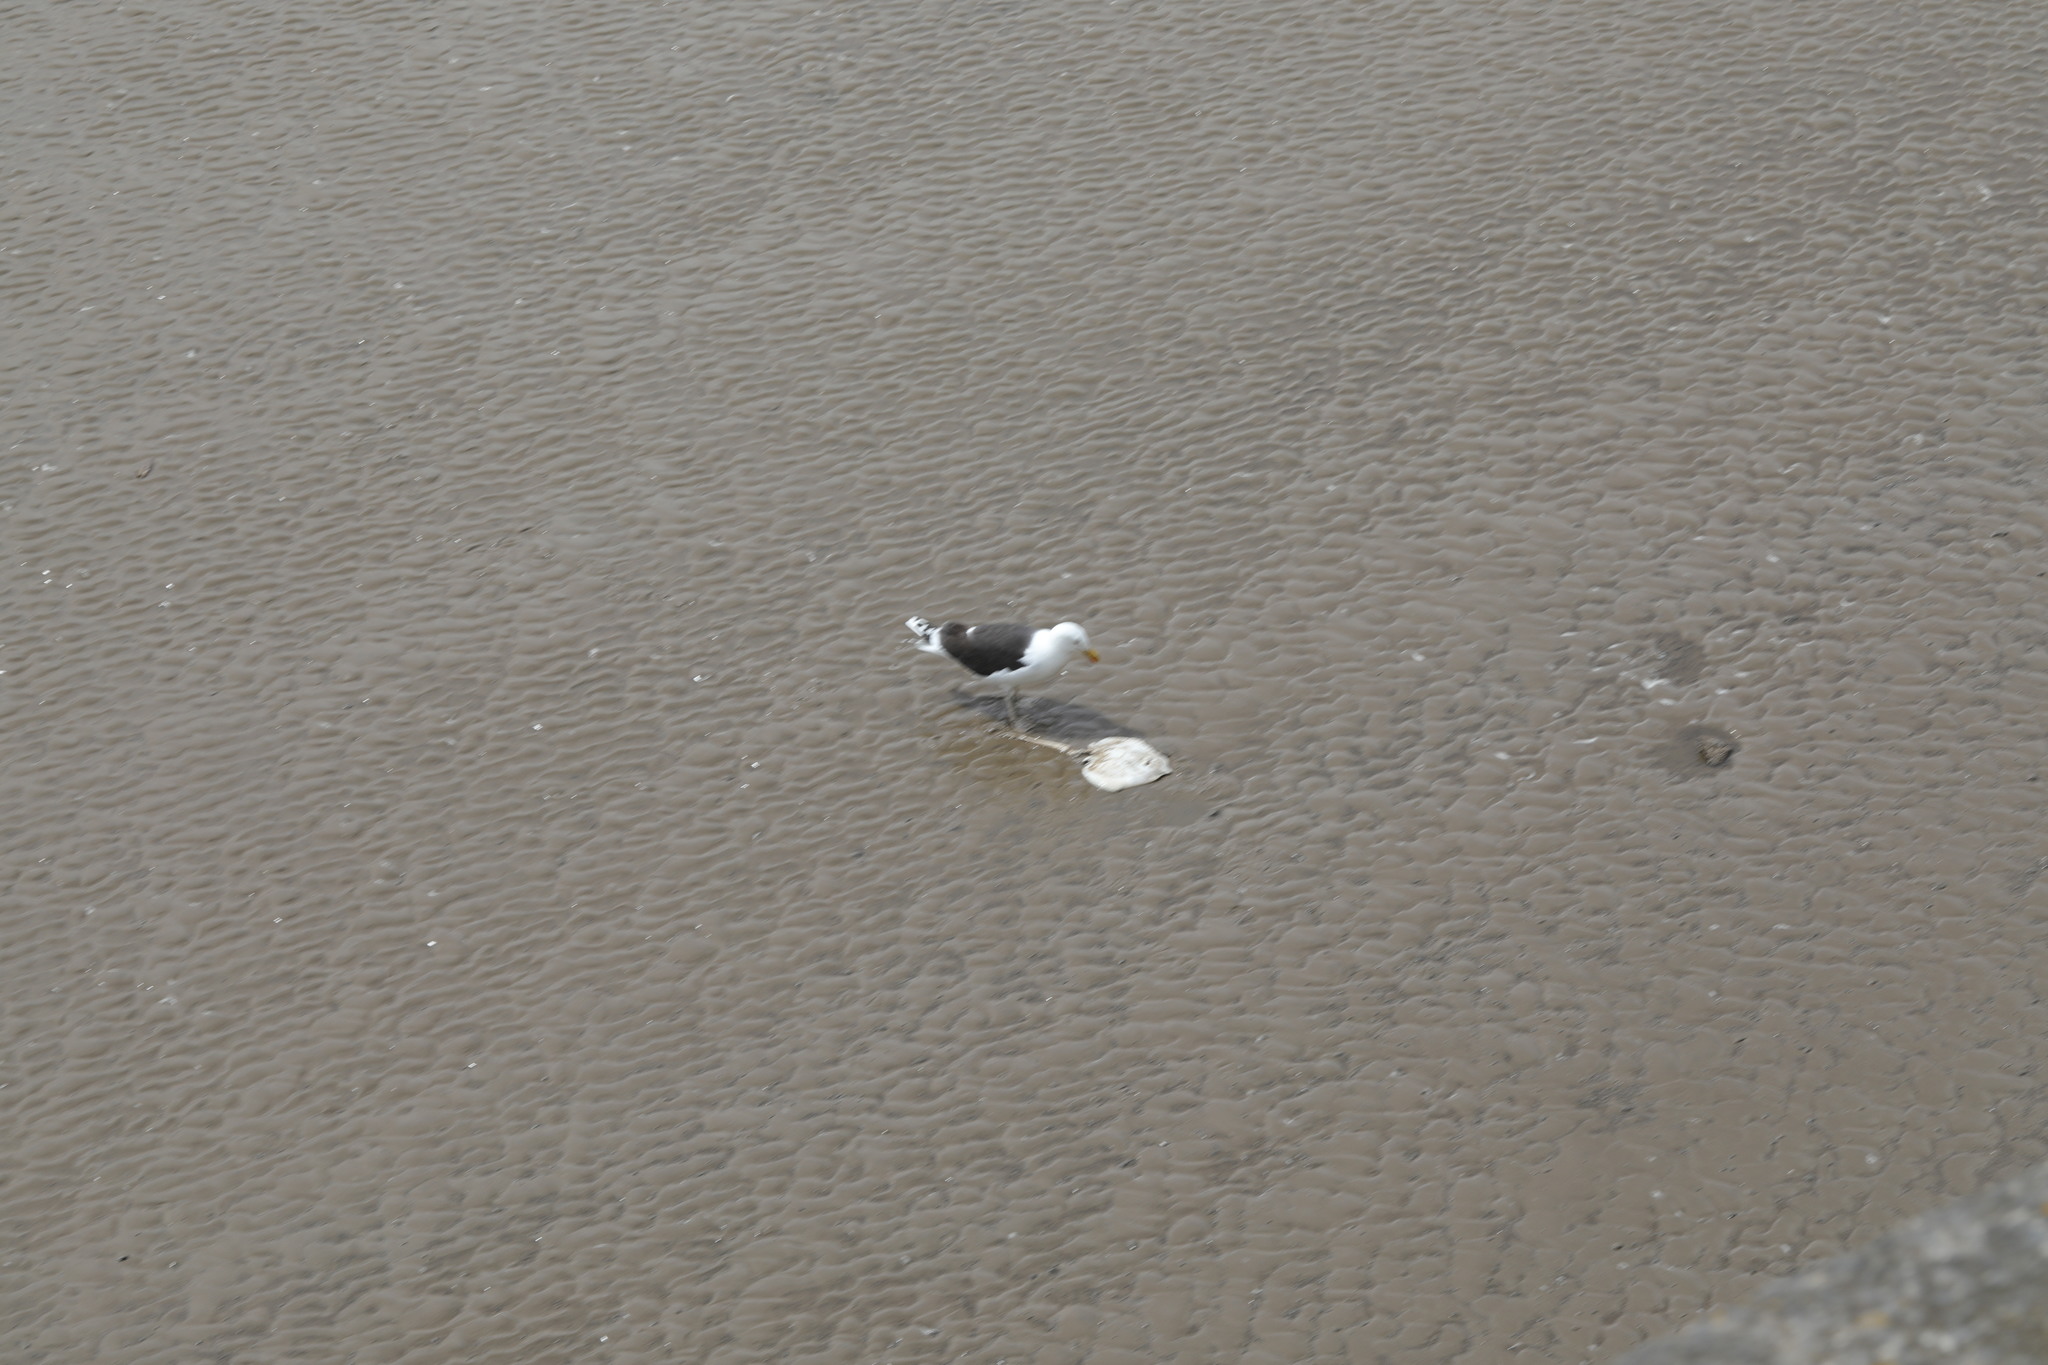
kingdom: Animalia
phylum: Chordata
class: Aves
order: Charadriiformes
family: Laridae
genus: Larus
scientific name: Larus marinus
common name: Great black-backed gull
